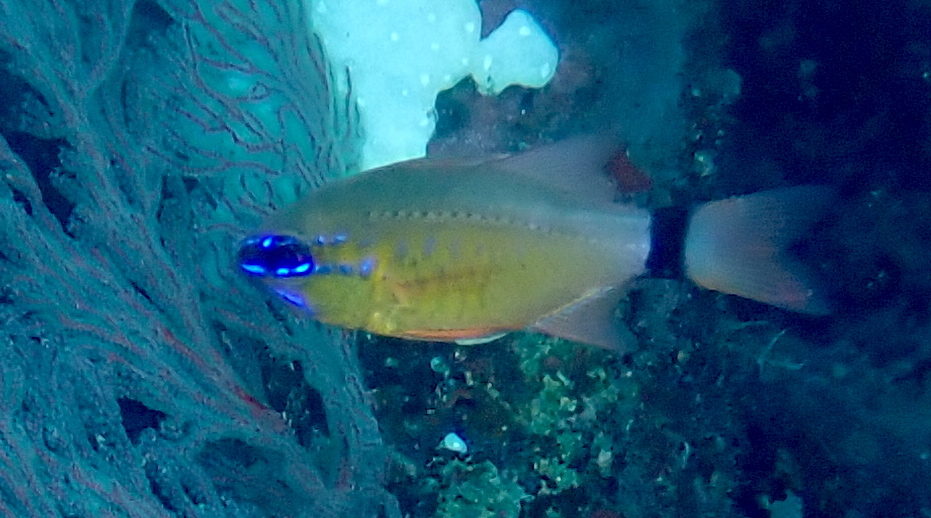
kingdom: Animalia
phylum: Chordata
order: Perciformes
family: Apogonidae
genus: Ostorhinchus
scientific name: Ostorhinchus aureus
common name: Ring-tailed cardinalfish
